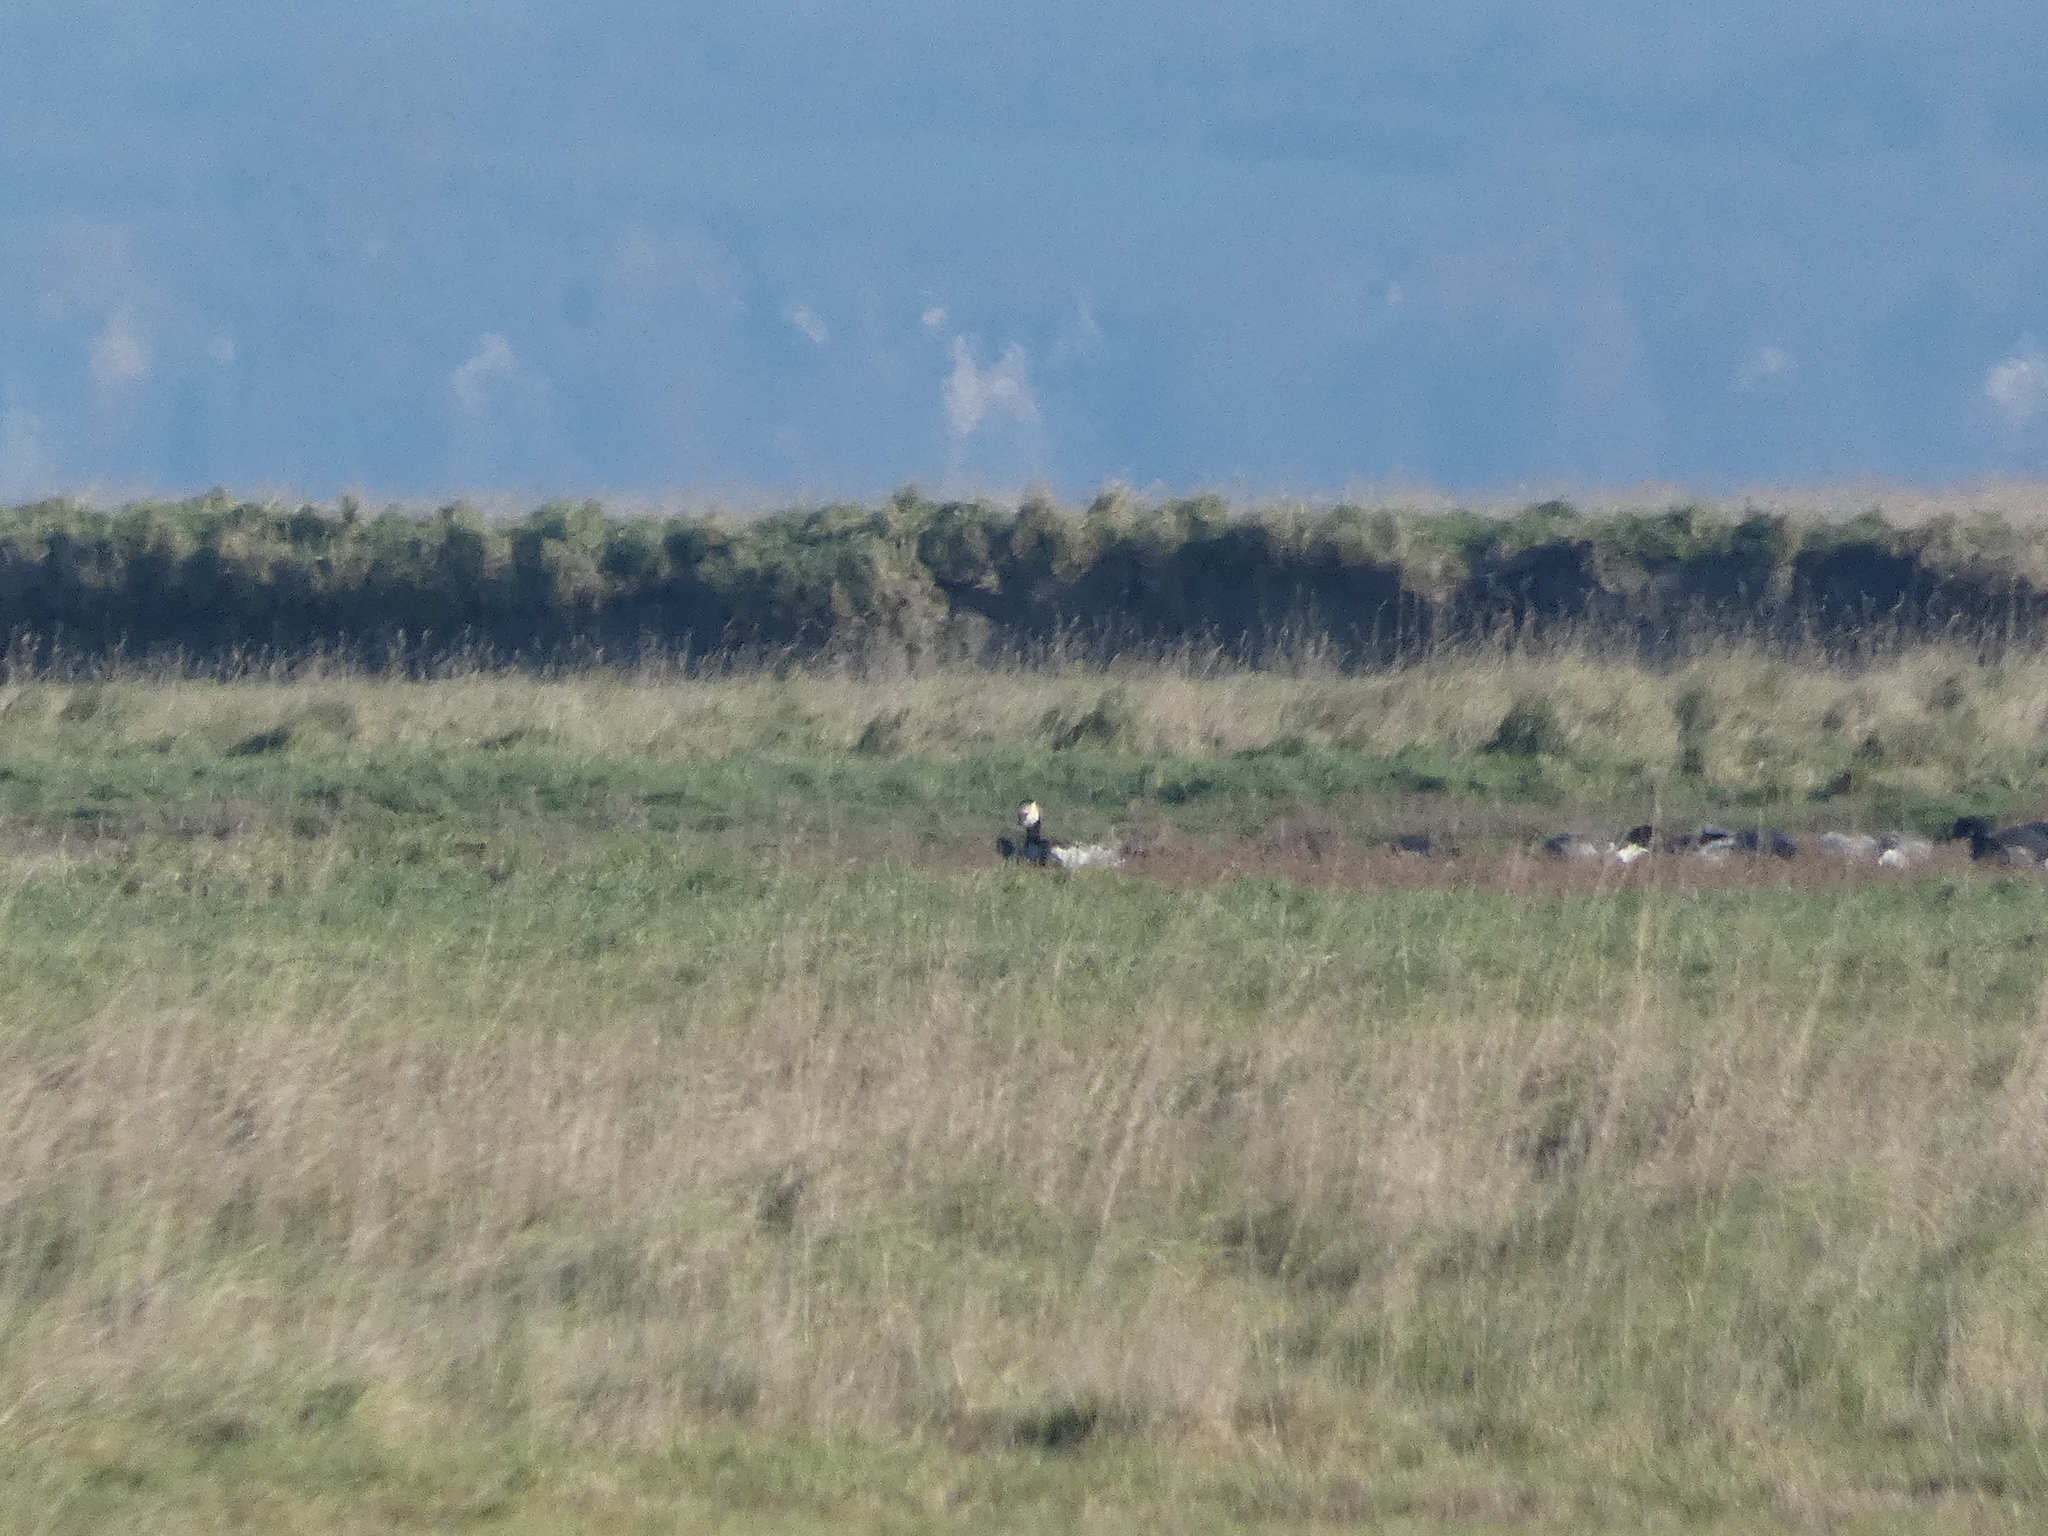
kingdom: Animalia
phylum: Chordata
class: Aves
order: Anseriformes
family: Anatidae
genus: Branta
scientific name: Branta leucopsis
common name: Barnacle goose
